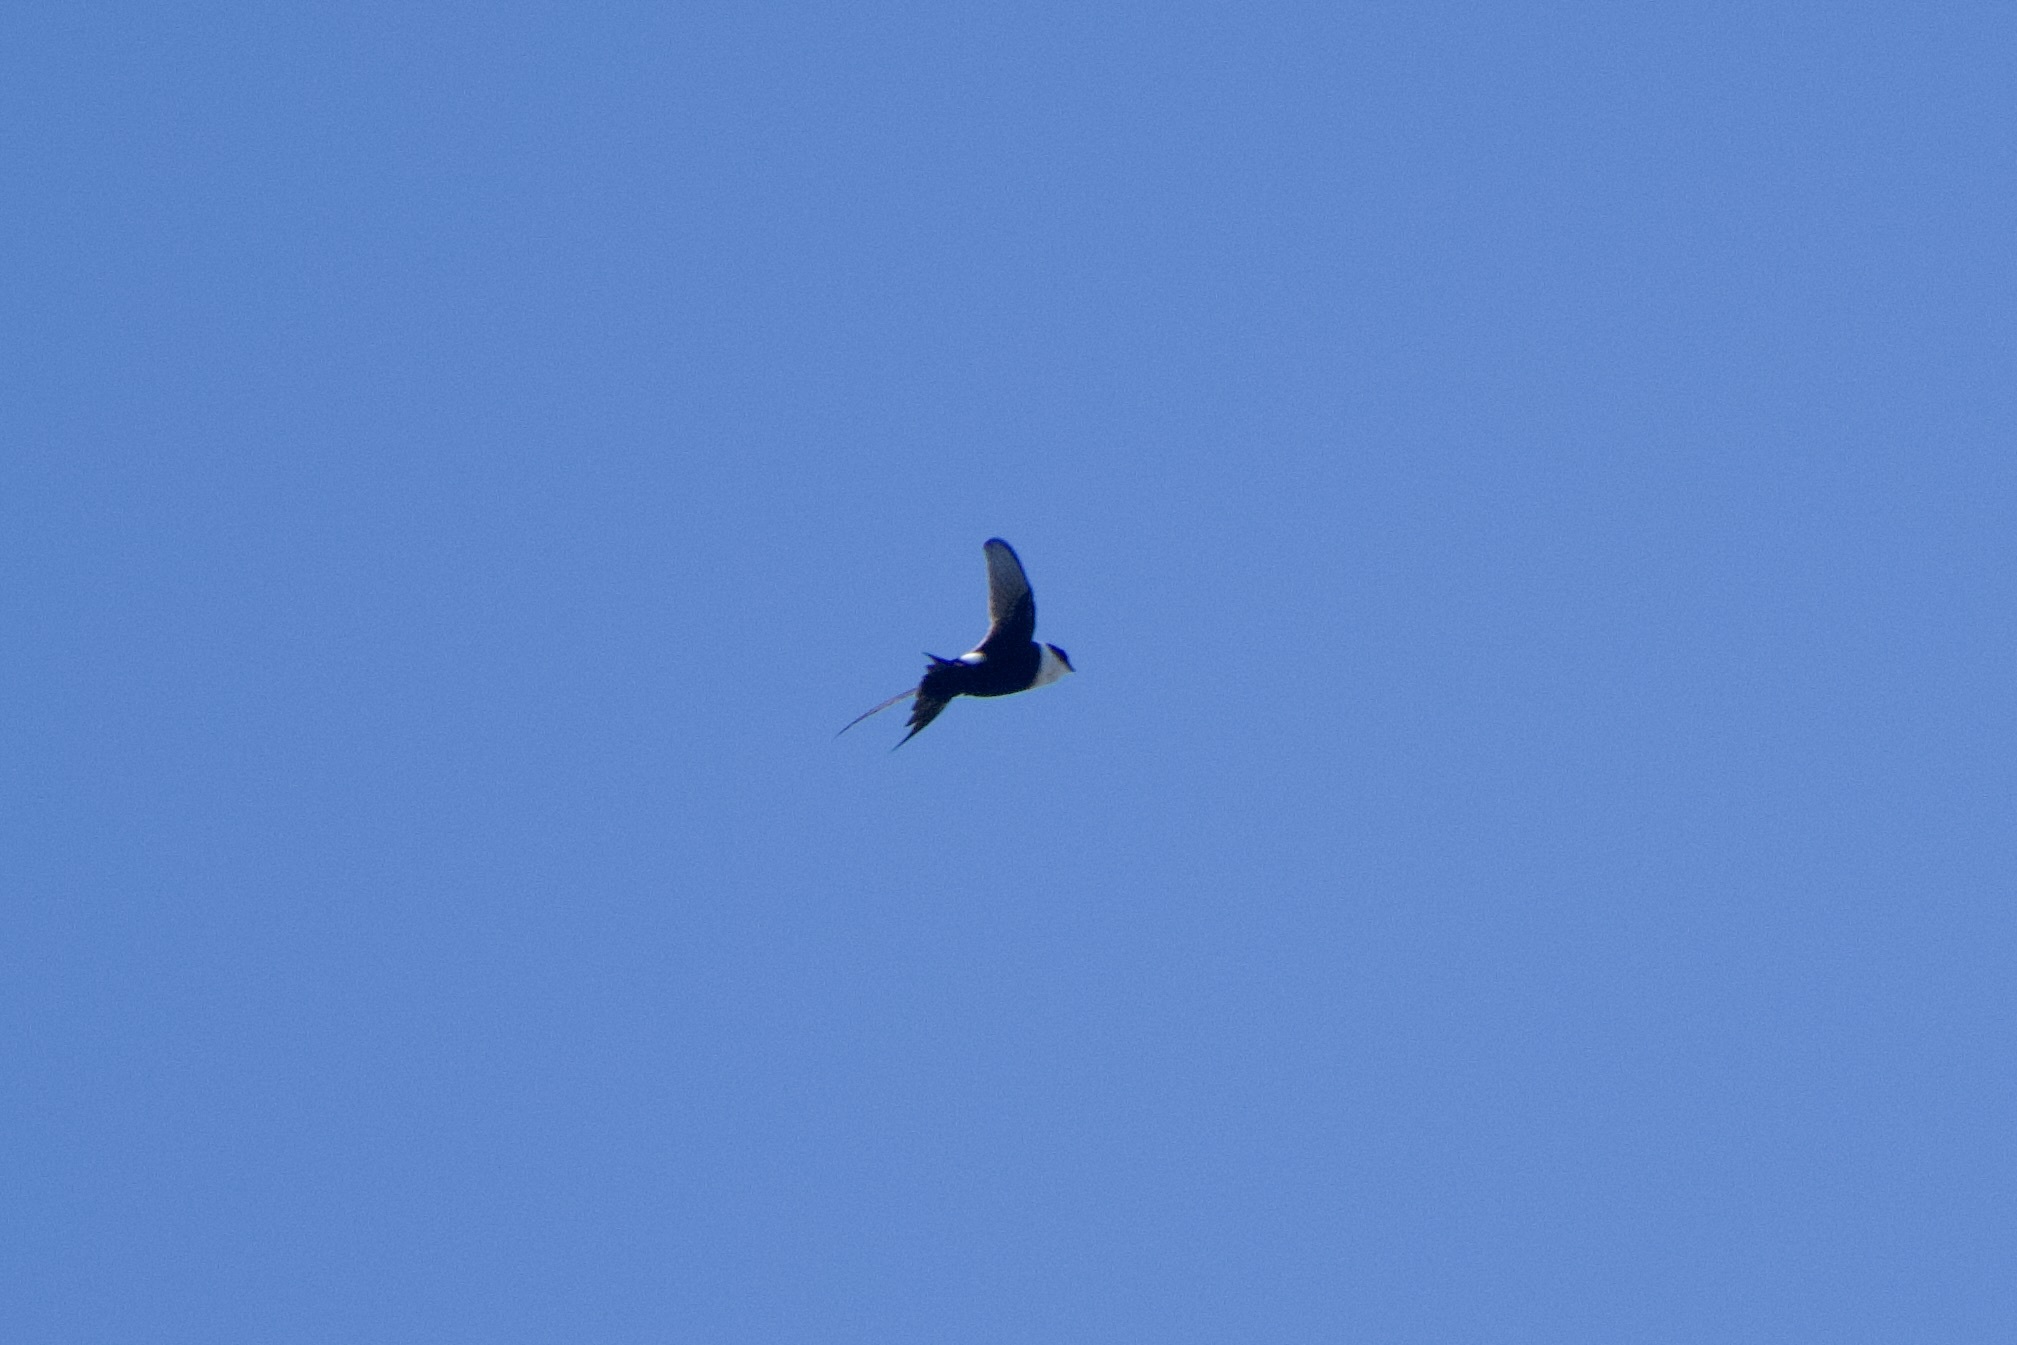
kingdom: Animalia
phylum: Chordata
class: Aves
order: Apodiformes
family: Apodidae
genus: Panyptila
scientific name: Panyptila cayennensis
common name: Lesser swallow-tailed swift
